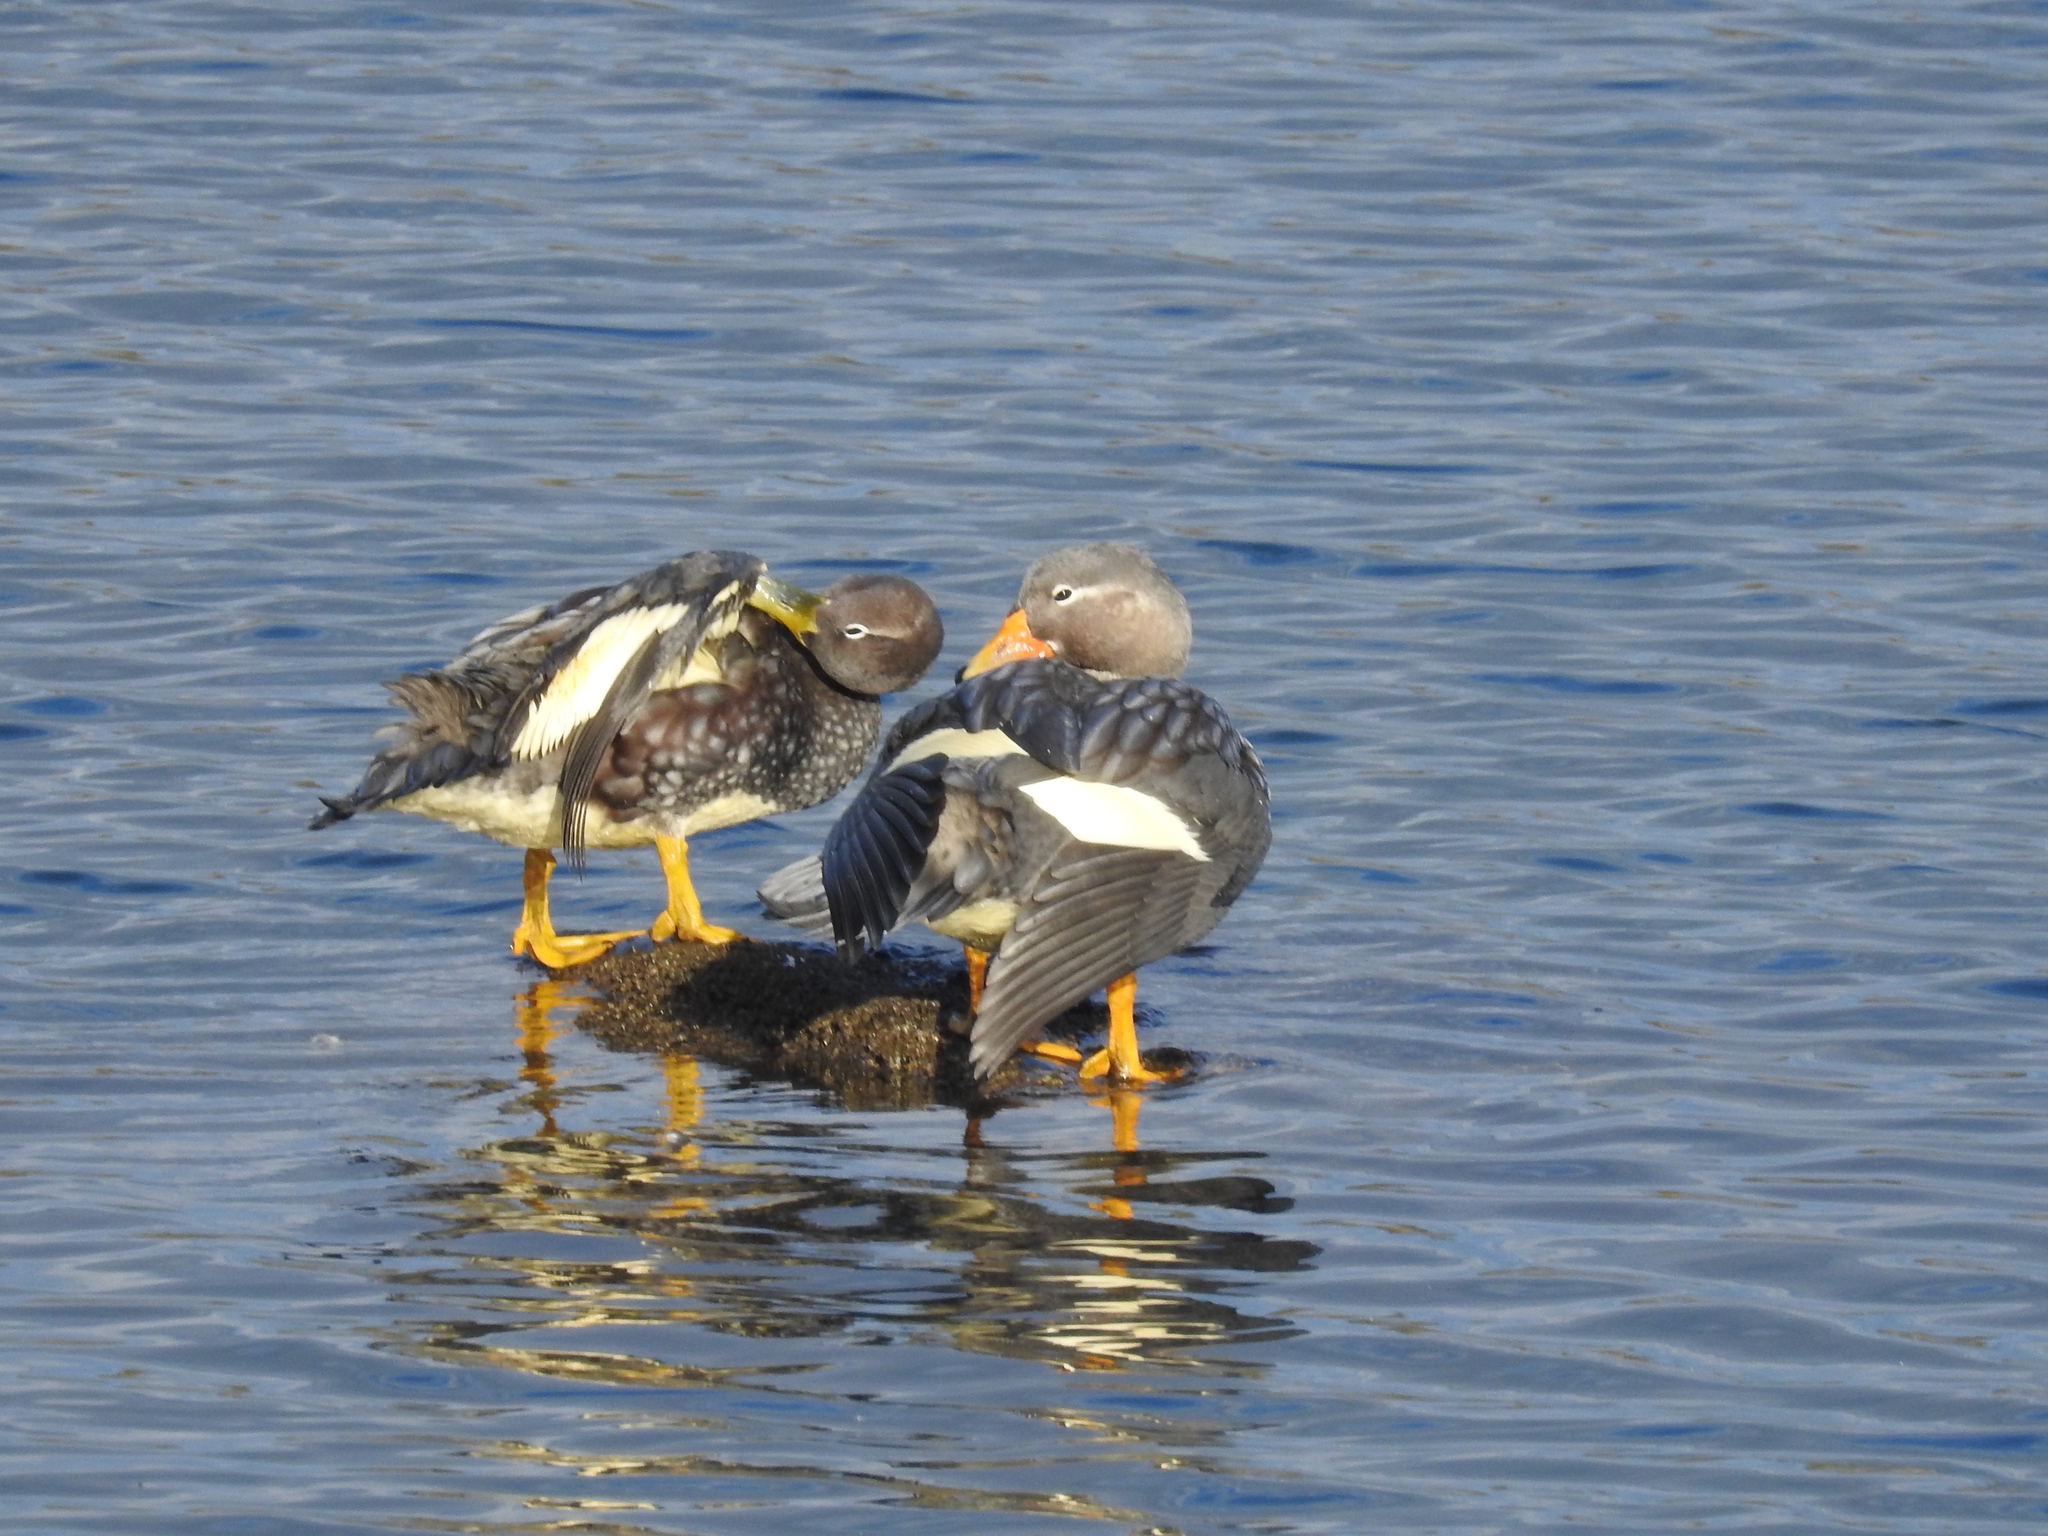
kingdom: Animalia
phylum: Chordata
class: Aves
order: Anseriformes
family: Anatidae
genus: Tachyeres
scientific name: Tachyeres patachonicus
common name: Flying steamer duck
